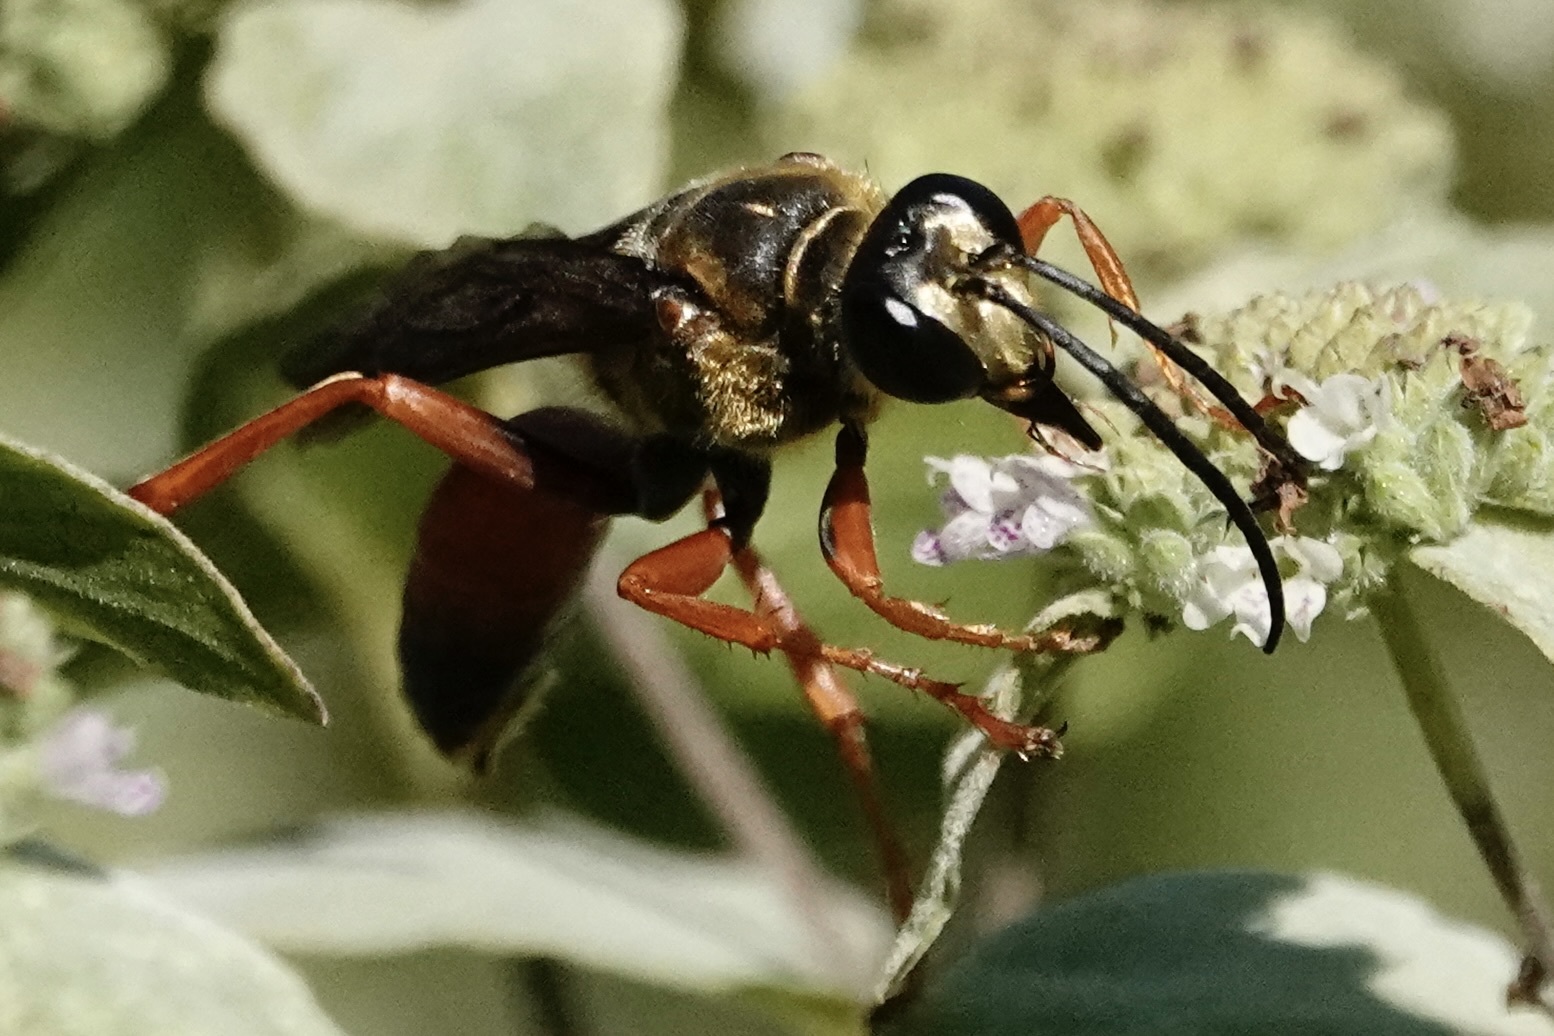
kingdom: Animalia
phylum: Arthropoda
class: Insecta
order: Hymenoptera
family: Sphecidae
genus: Sphex
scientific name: Sphex ichneumoneus
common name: Great golden digger wasp
